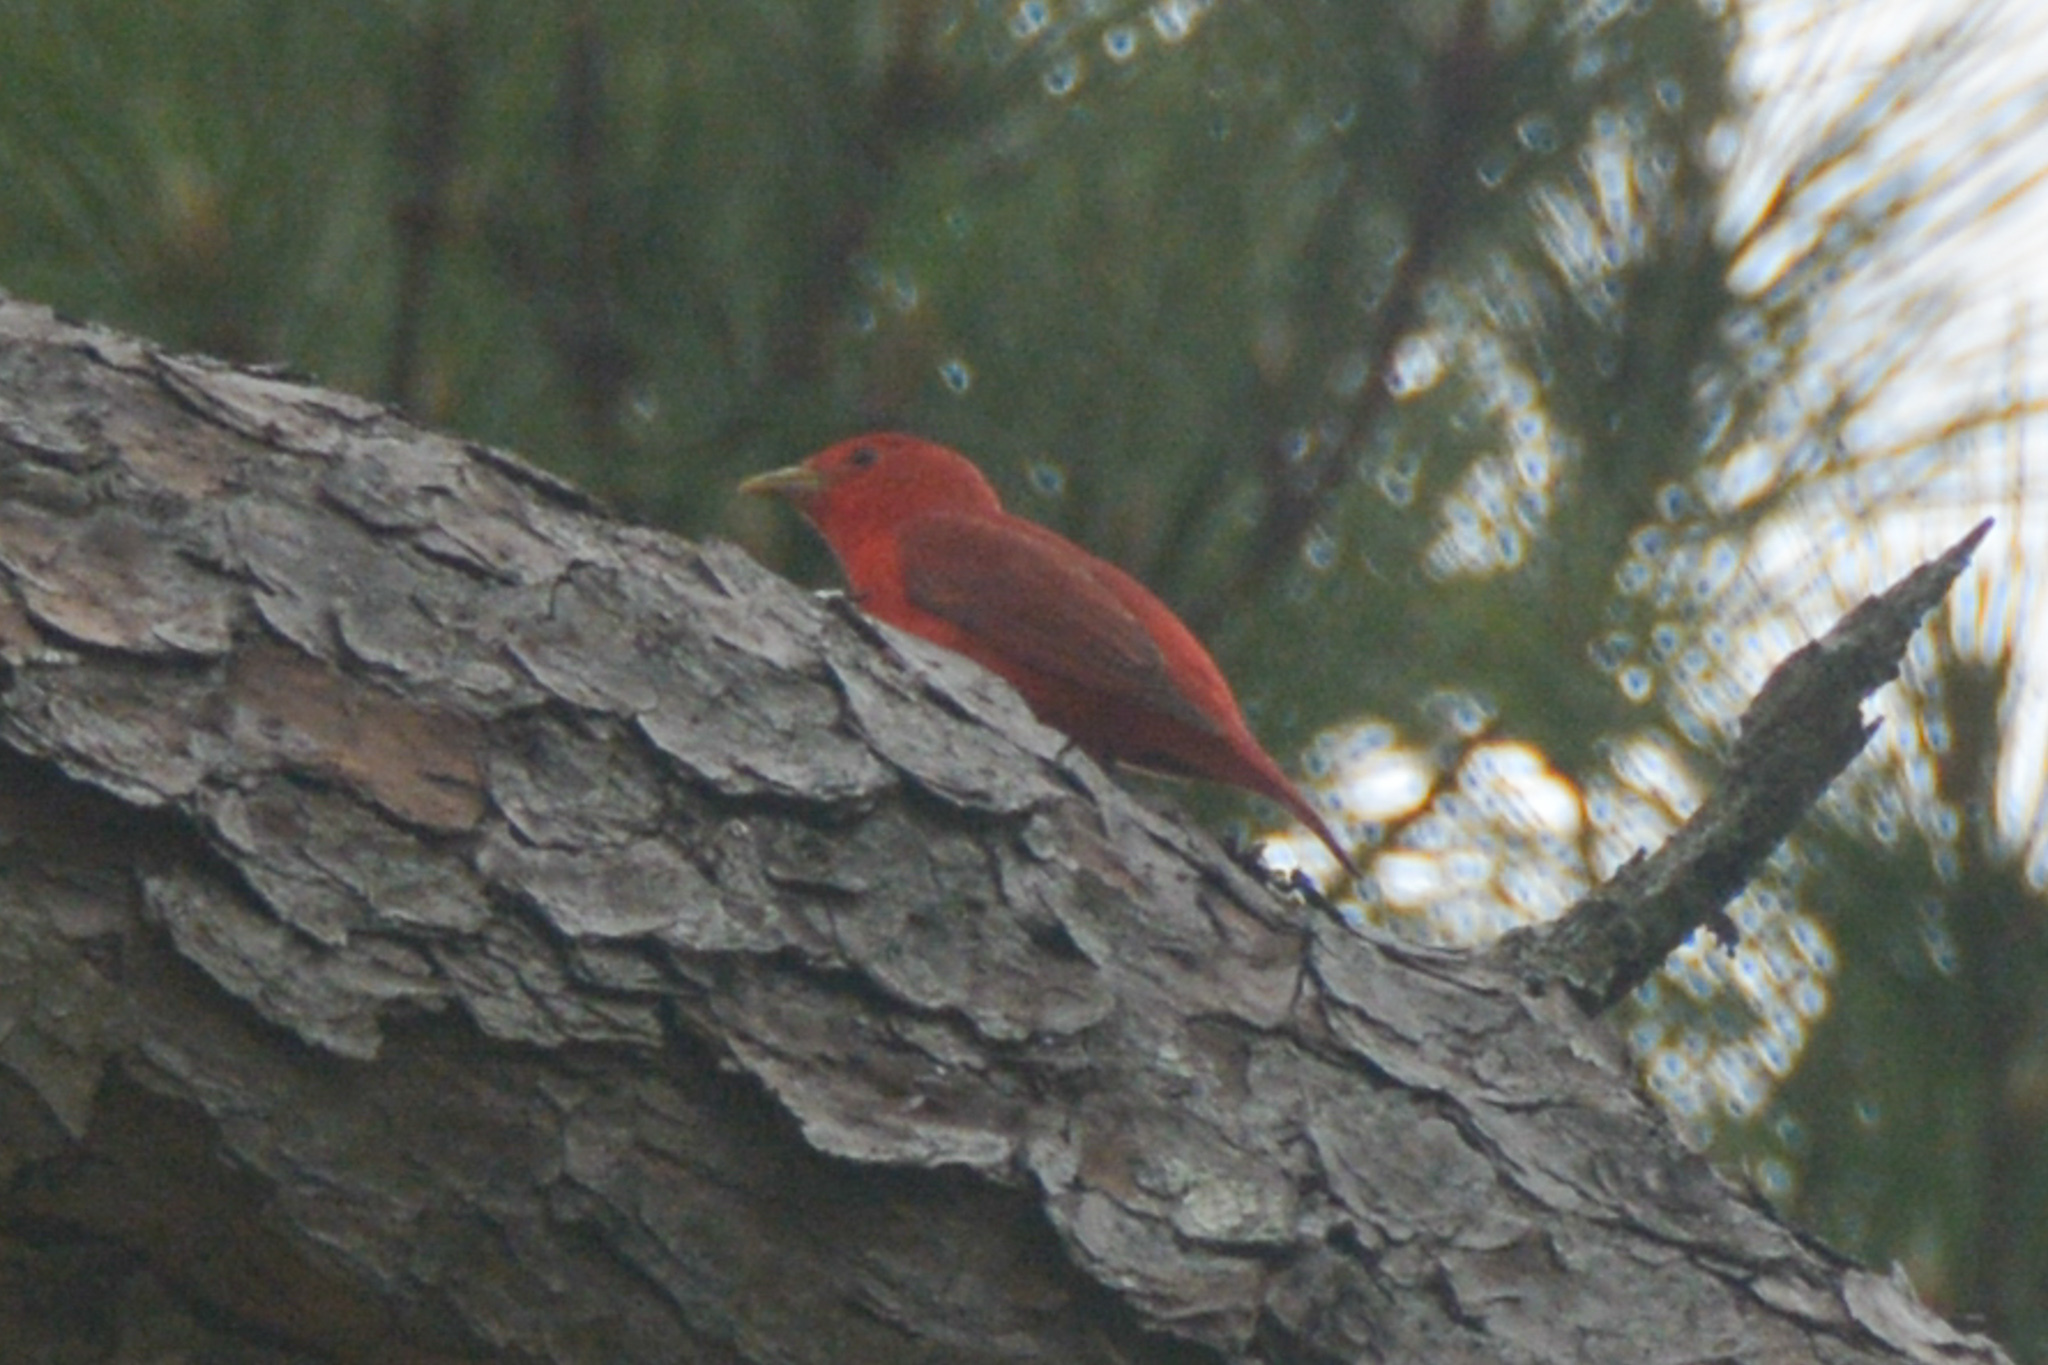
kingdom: Animalia
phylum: Chordata
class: Aves
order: Passeriformes
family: Cardinalidae
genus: Piranga
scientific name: Piranga rubra
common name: Summer tanager
